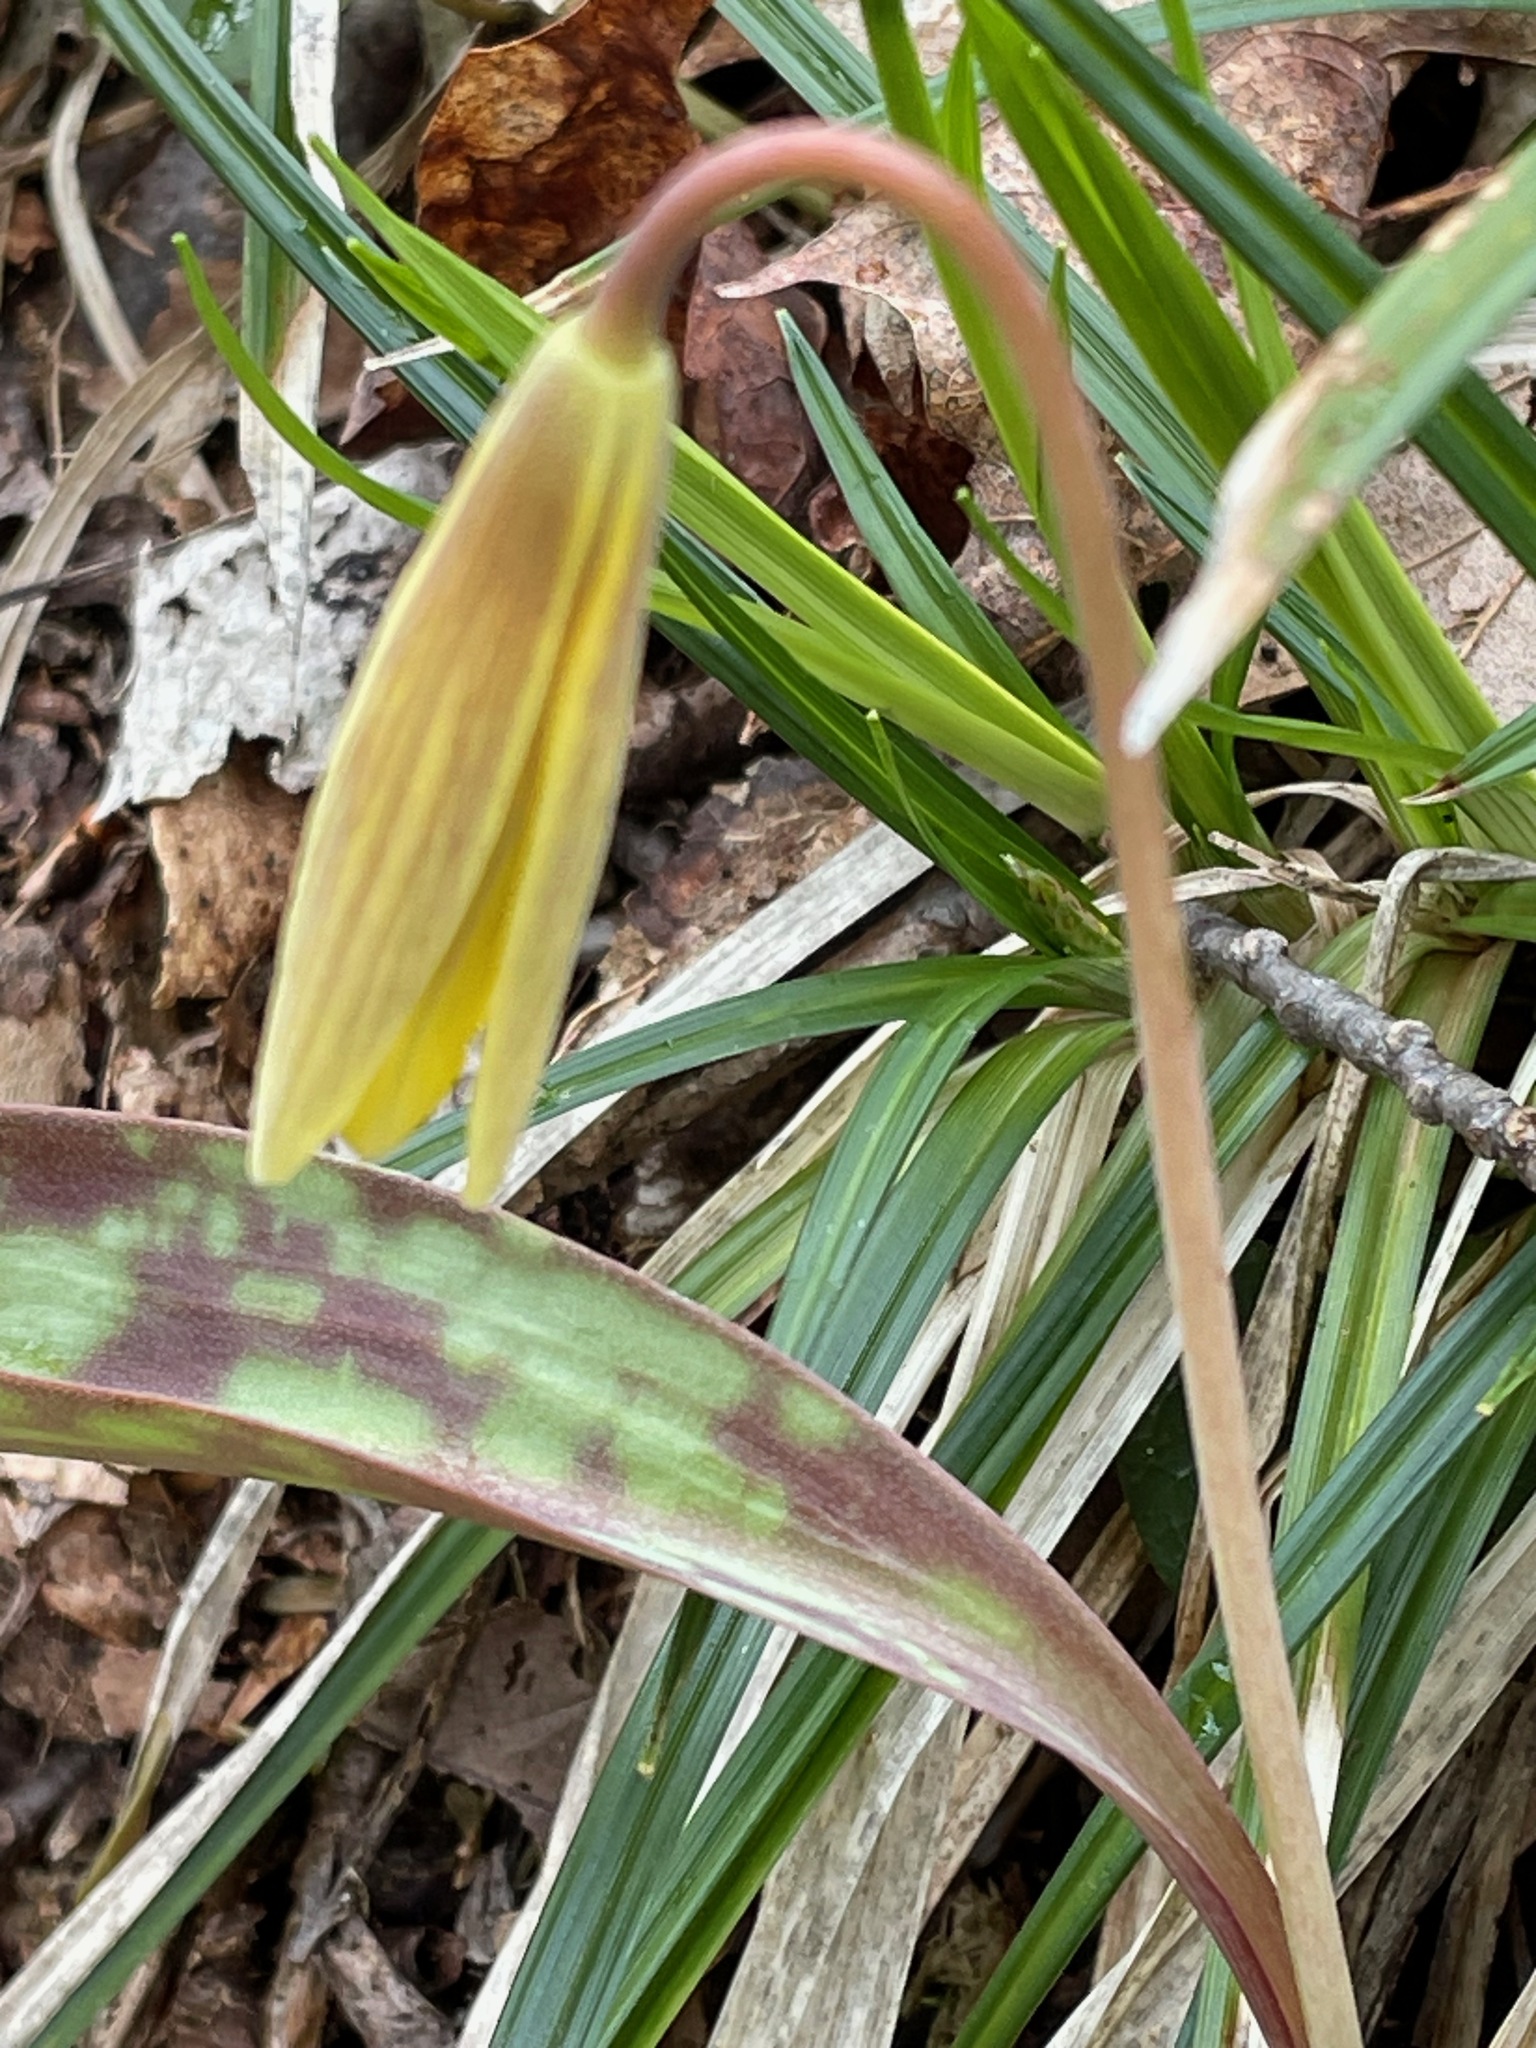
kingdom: Plantae
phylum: Tracheophyta
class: Liliopsida
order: Liliales
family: Liliaceae
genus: Erythronium
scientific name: Erythronium americanum
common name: Yellow adder's-tongue
